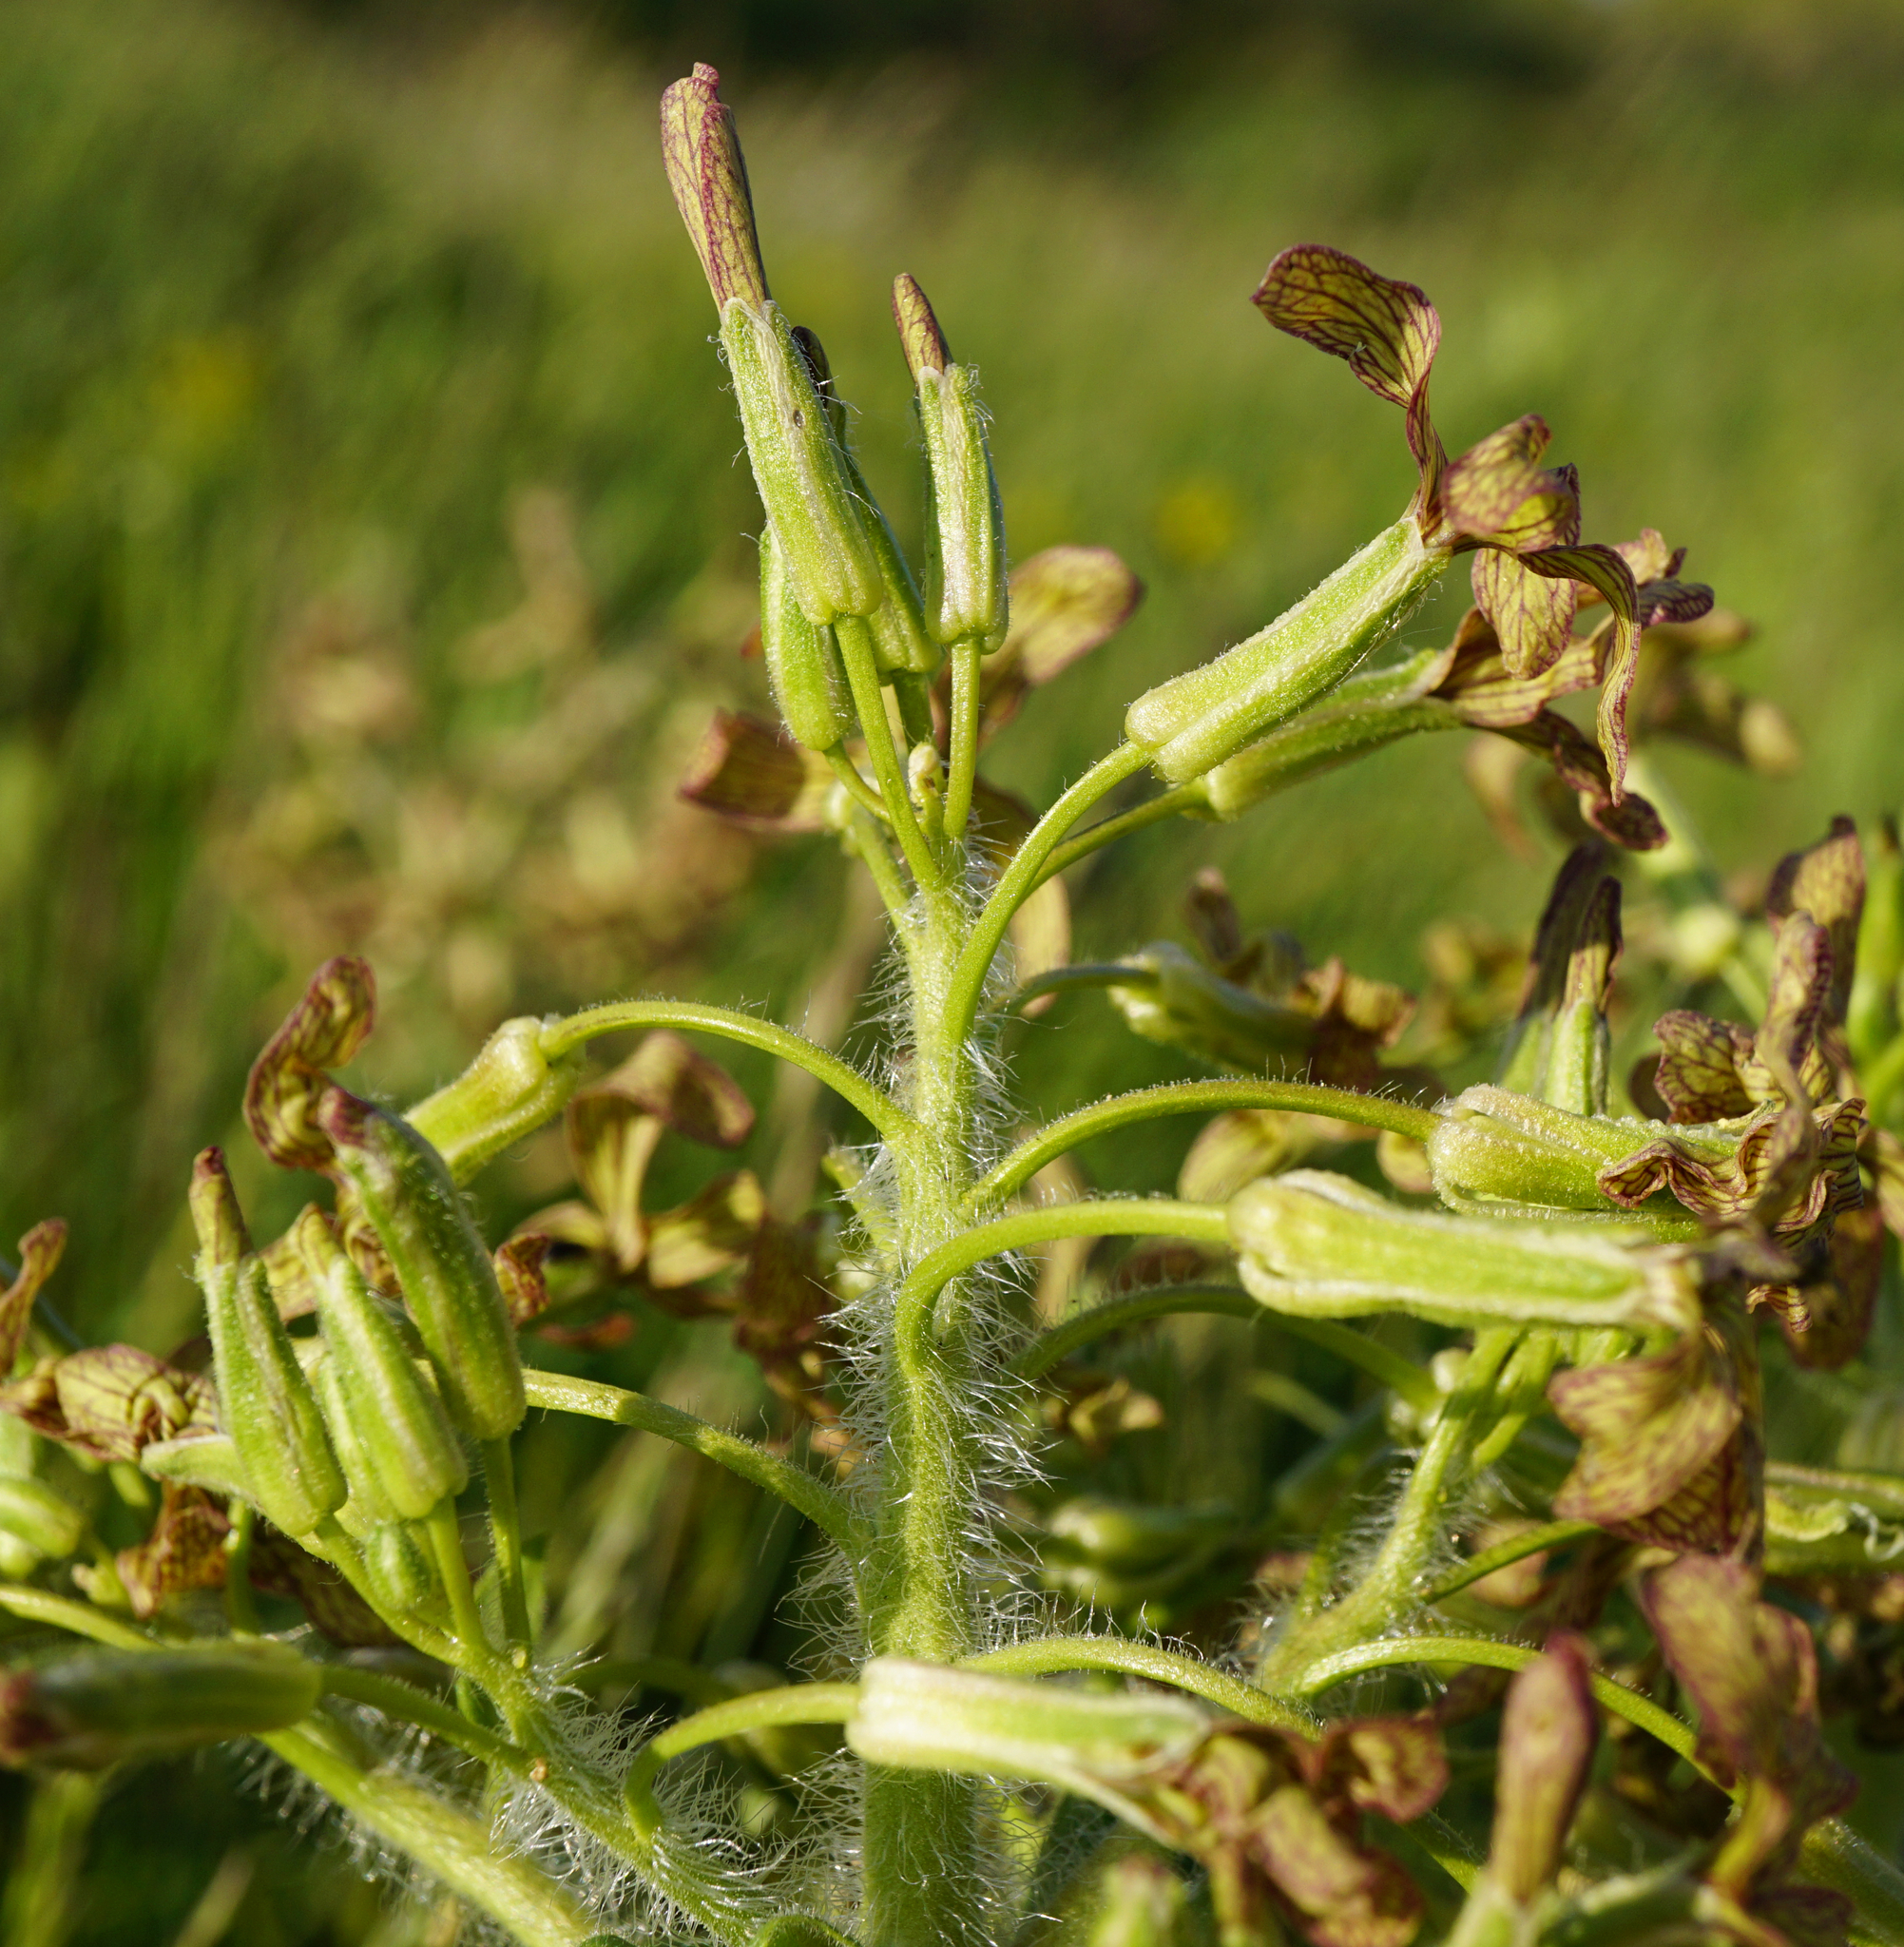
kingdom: Plantae
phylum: Tracheophyta
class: Magnoliopsida
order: Brassicales
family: Brassicaceae
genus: Hesperis
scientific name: Hesperis tristis
